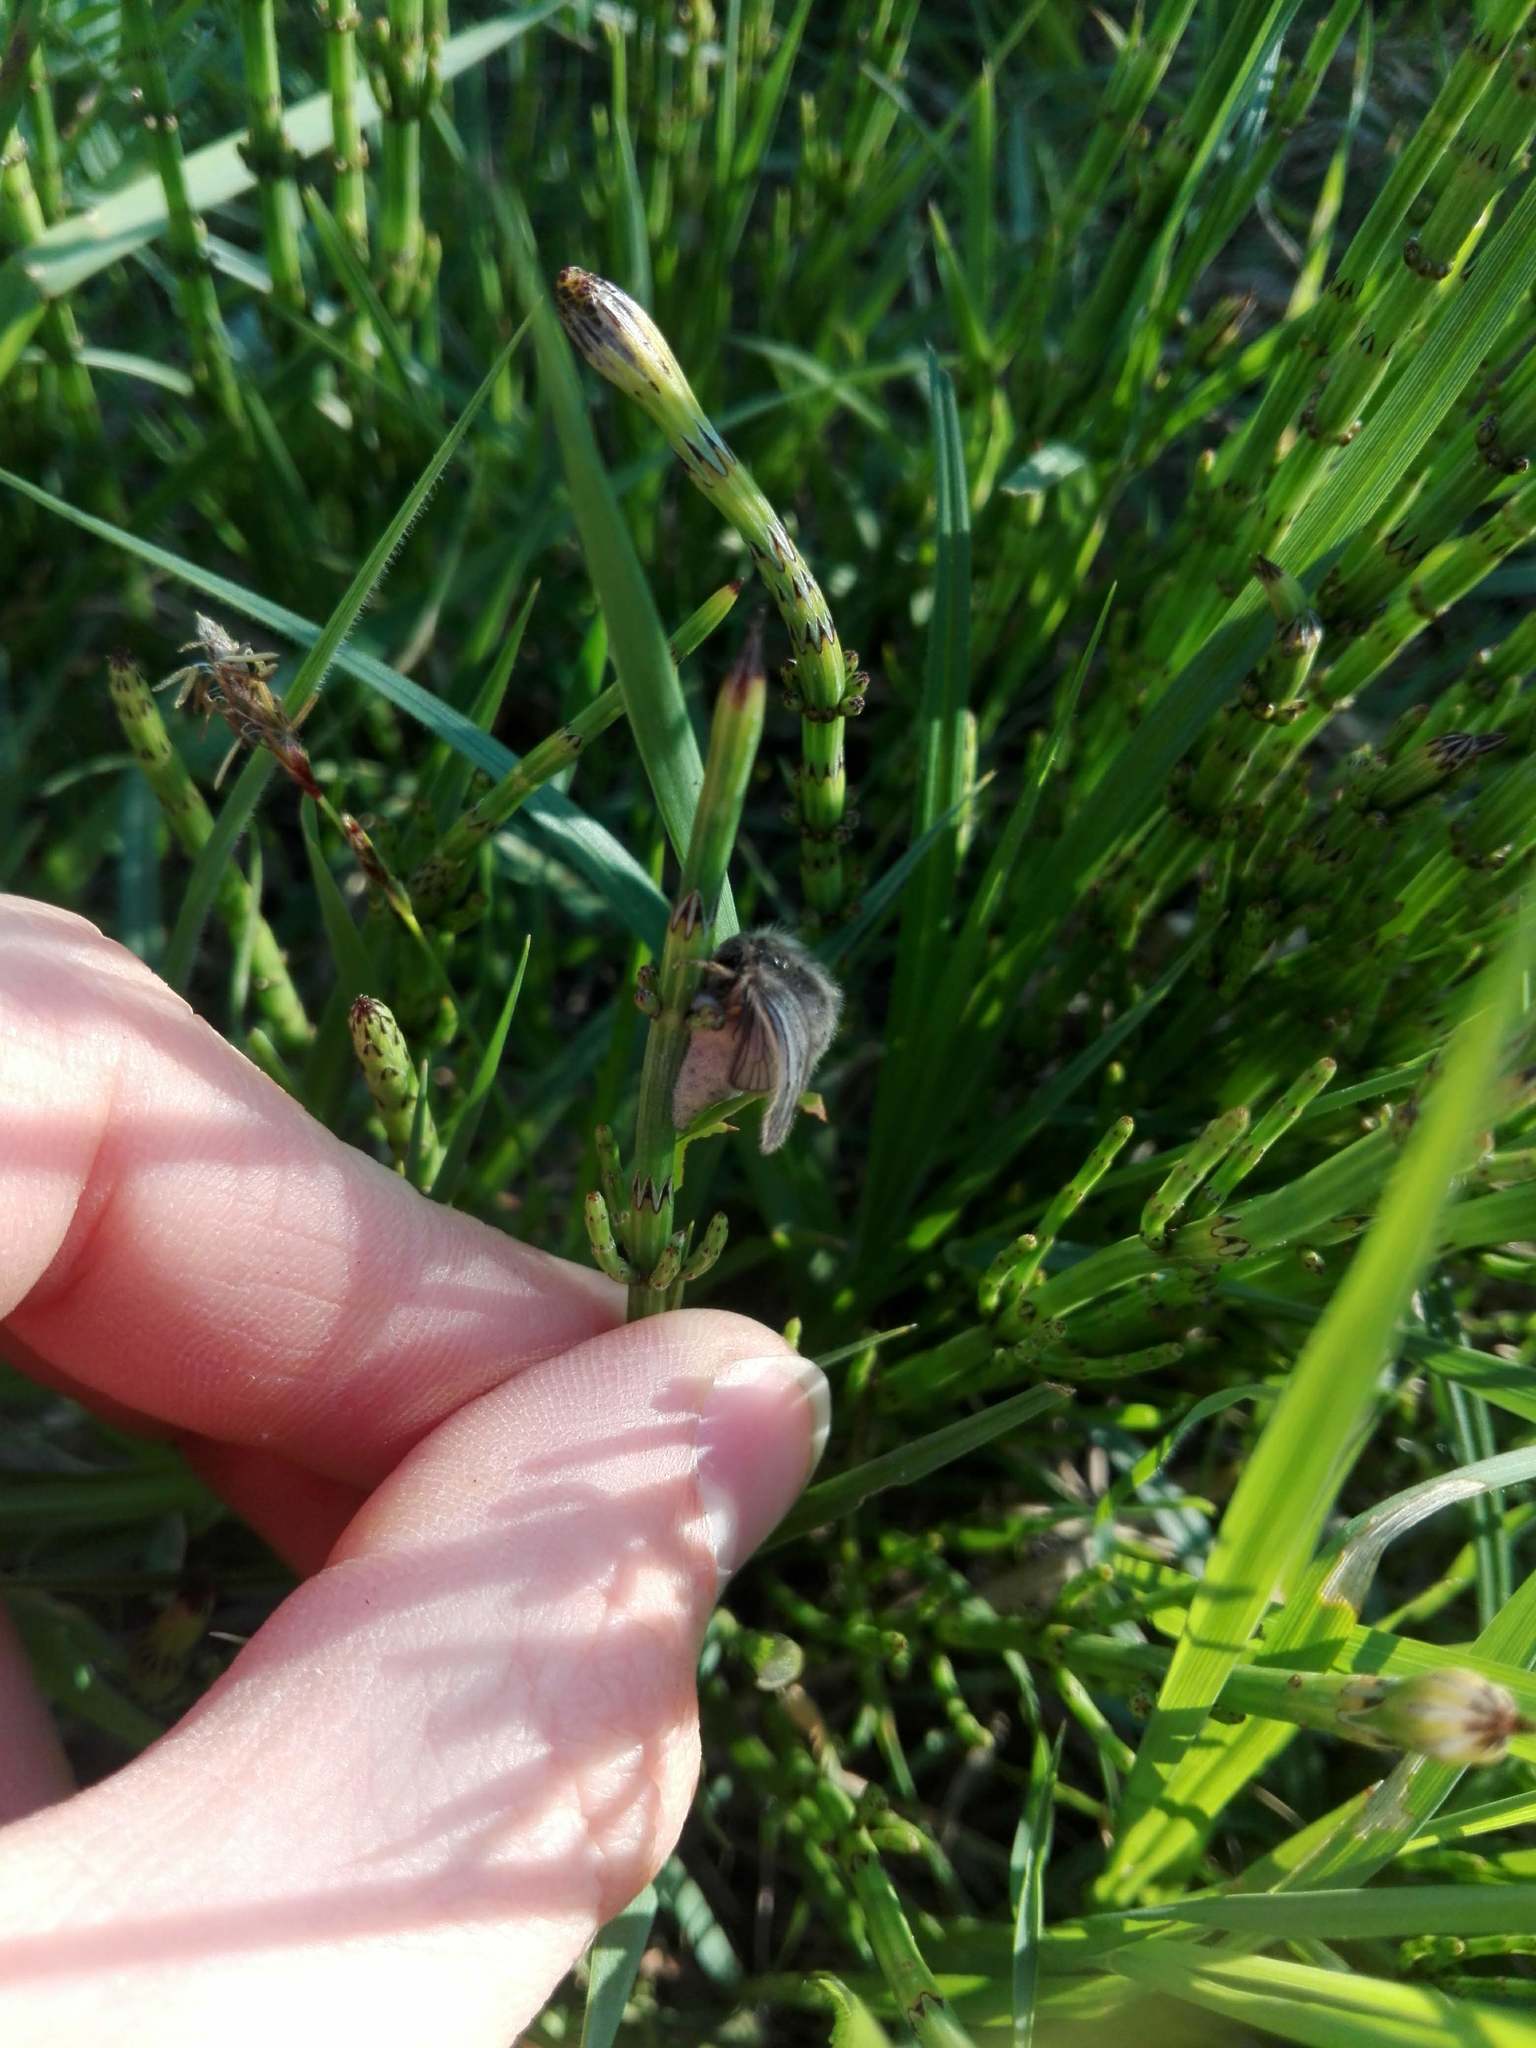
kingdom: Plantae
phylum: Tracheophyta
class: Polypodiopsida
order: Equisetales
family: Equisetaceae
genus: Equisetum
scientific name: Equisetum palustre
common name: Marsh horsetail
